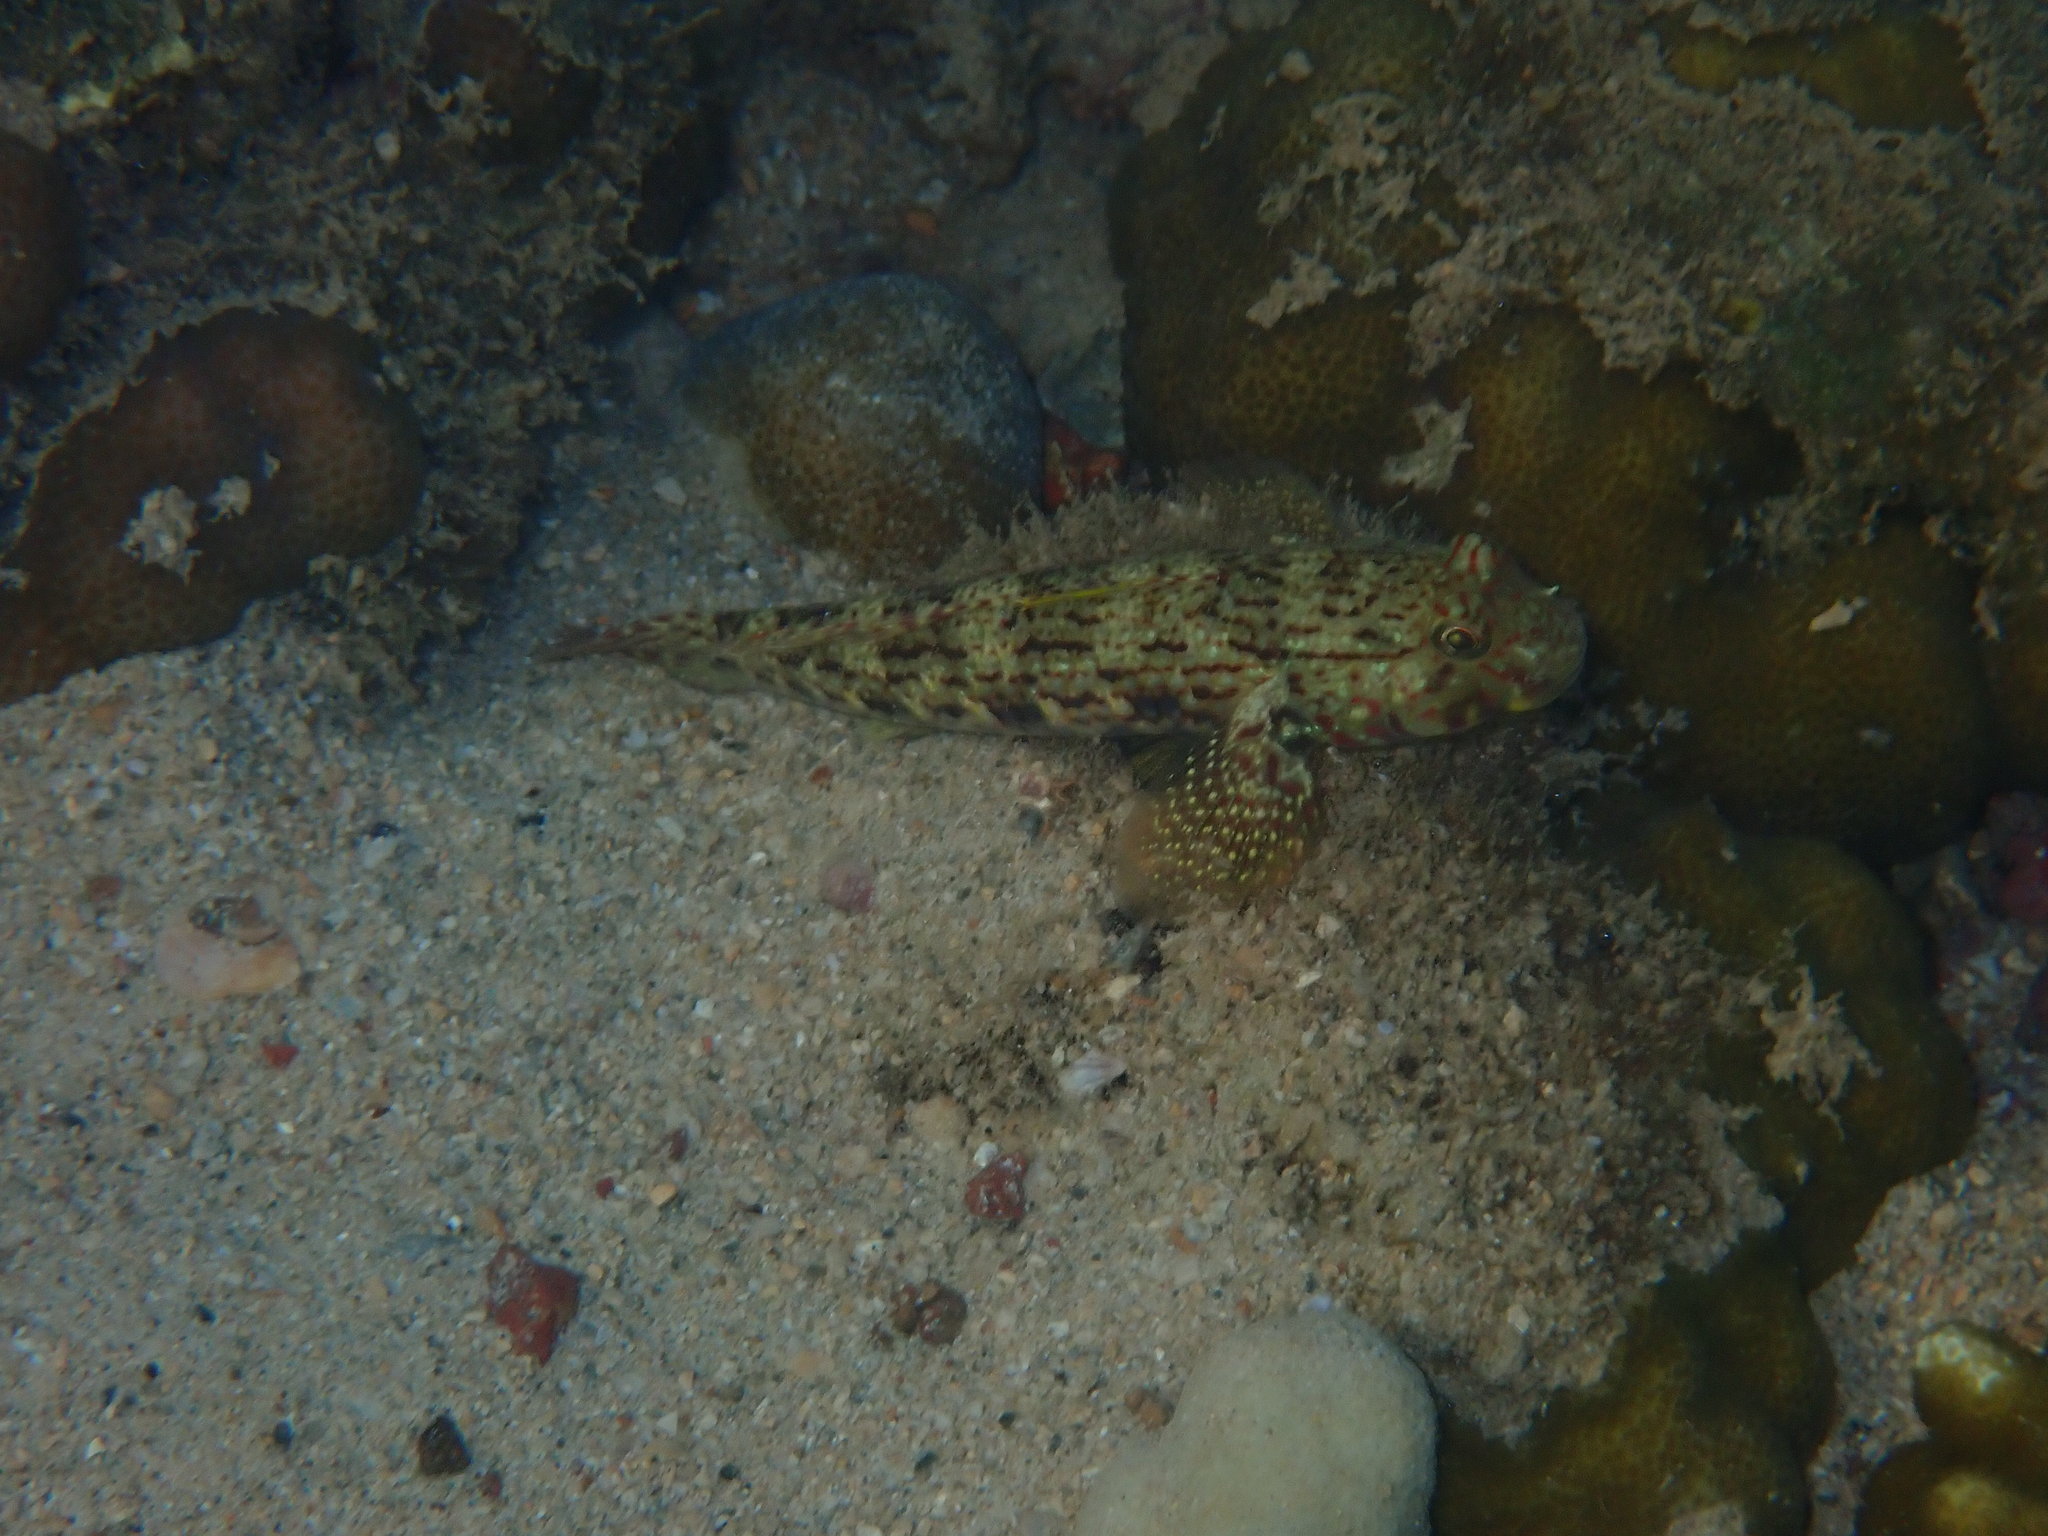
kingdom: Animalia
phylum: Chordata
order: Perciformes
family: Gobiidae
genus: Istigobius
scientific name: Istigobius ornatus
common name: Ornate goby
